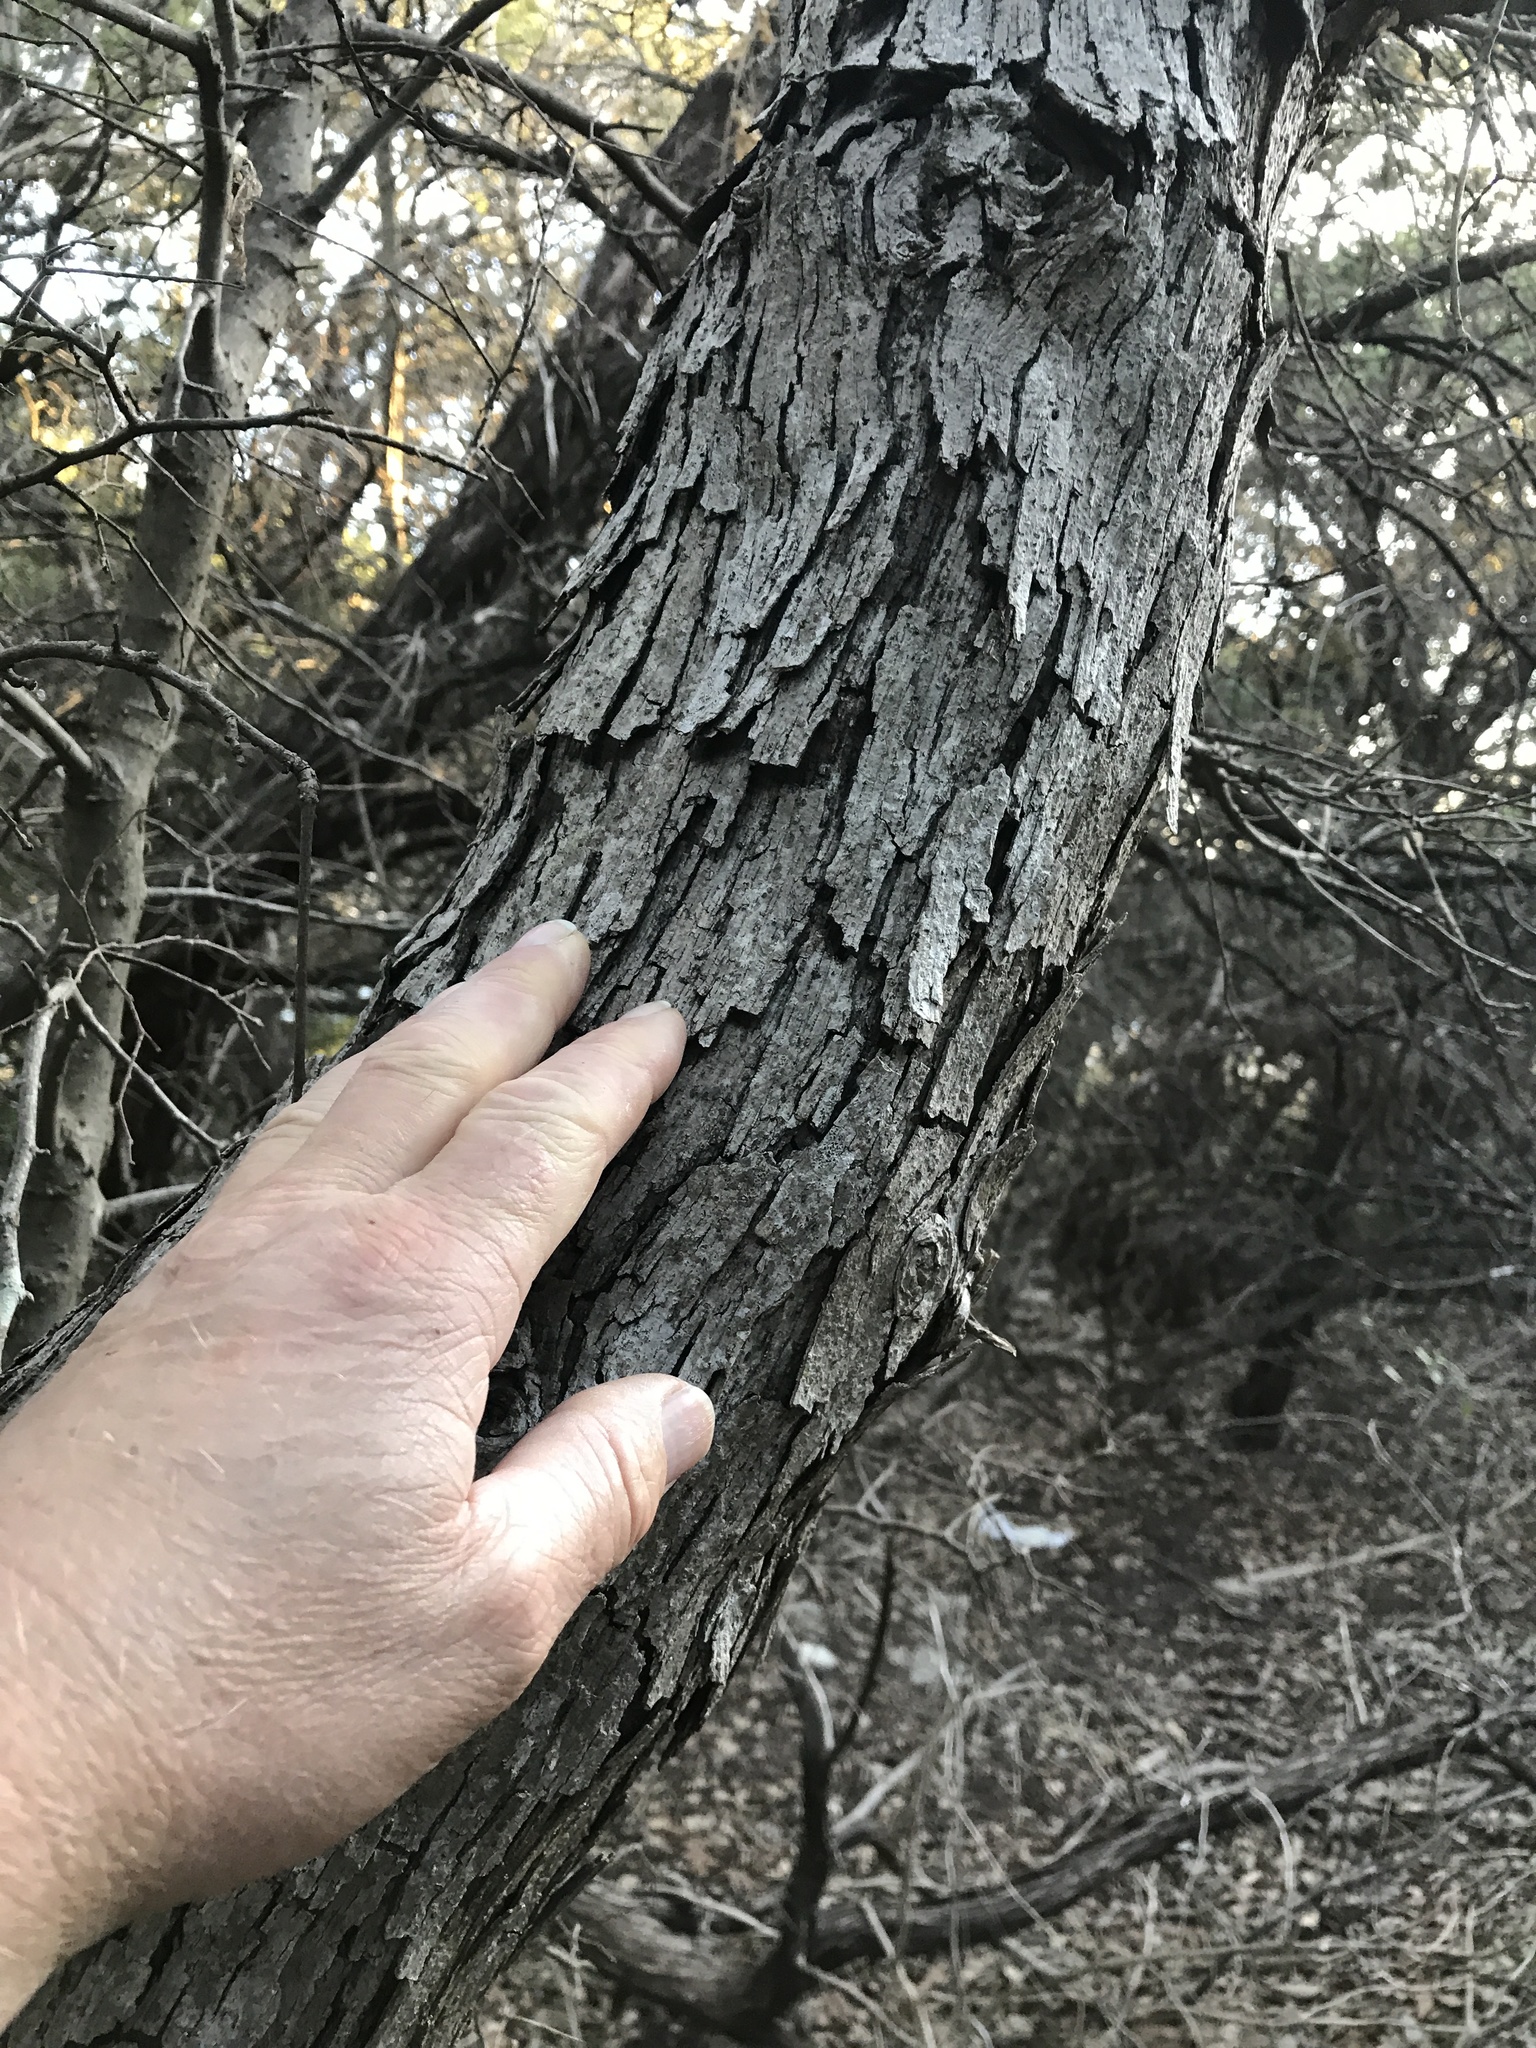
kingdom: Plantae
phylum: Tracheophyta
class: Magnoliopsida
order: Fagales
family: Fagaceae
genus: Quercus
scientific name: Quercus sinuata
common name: Durand oak
